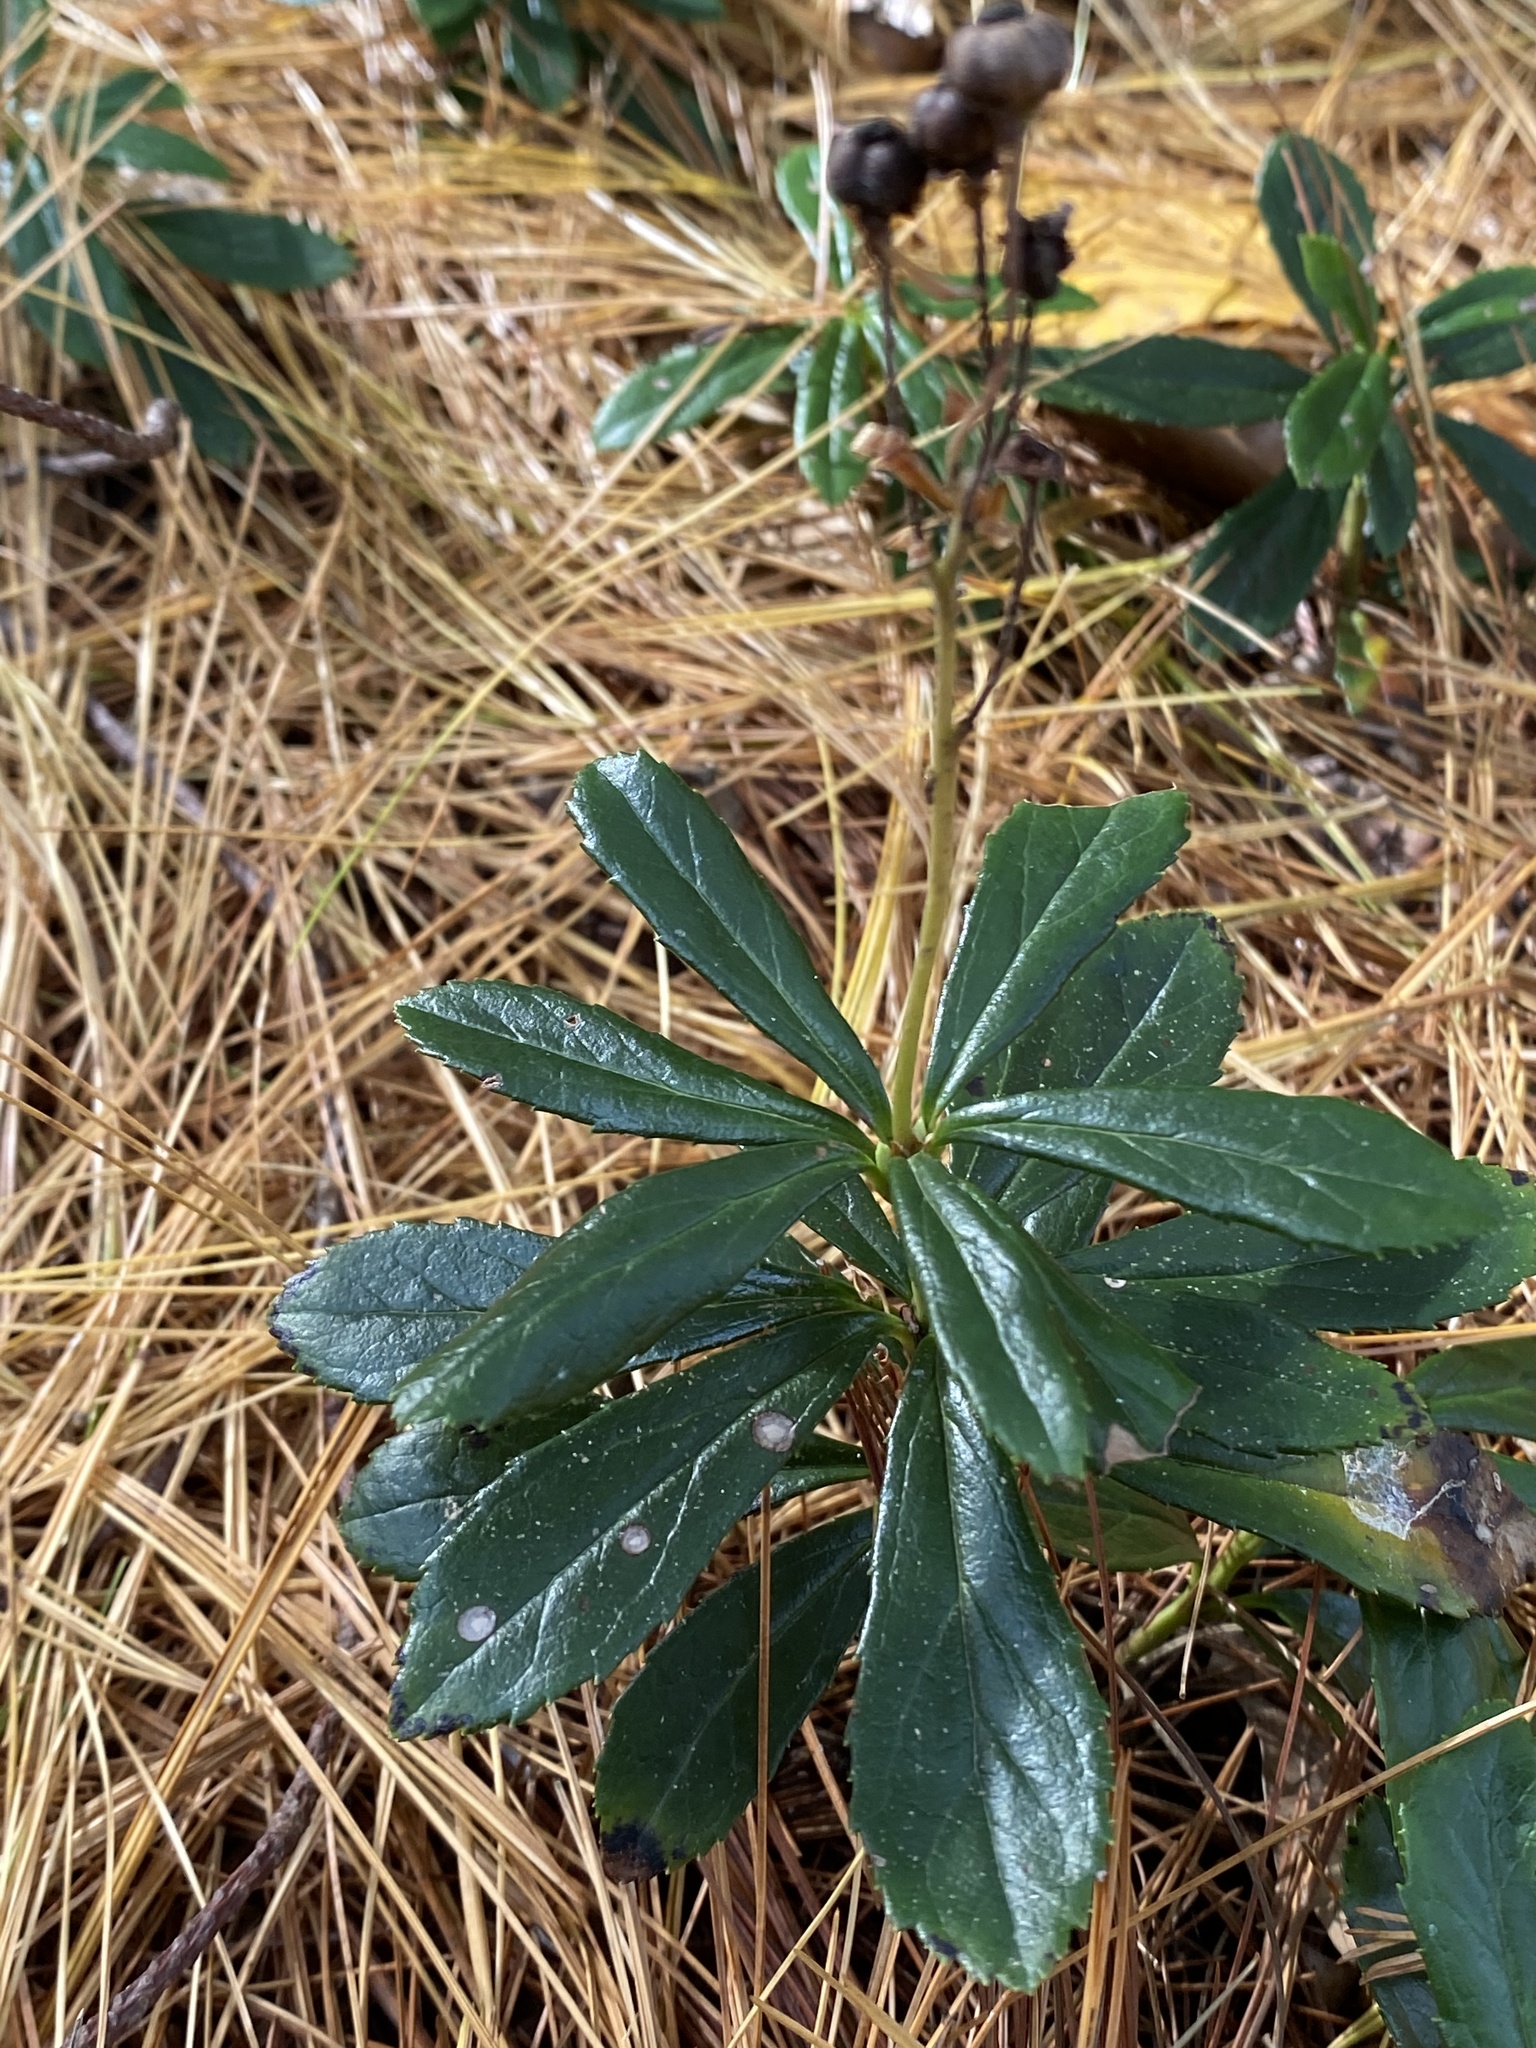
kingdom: Plantae
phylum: Tracheophyta
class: Magnoliopsida
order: Ericales
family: Ericaceae
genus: Chimaphila
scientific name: Chimaphila umbellata
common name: Pipsissewa
